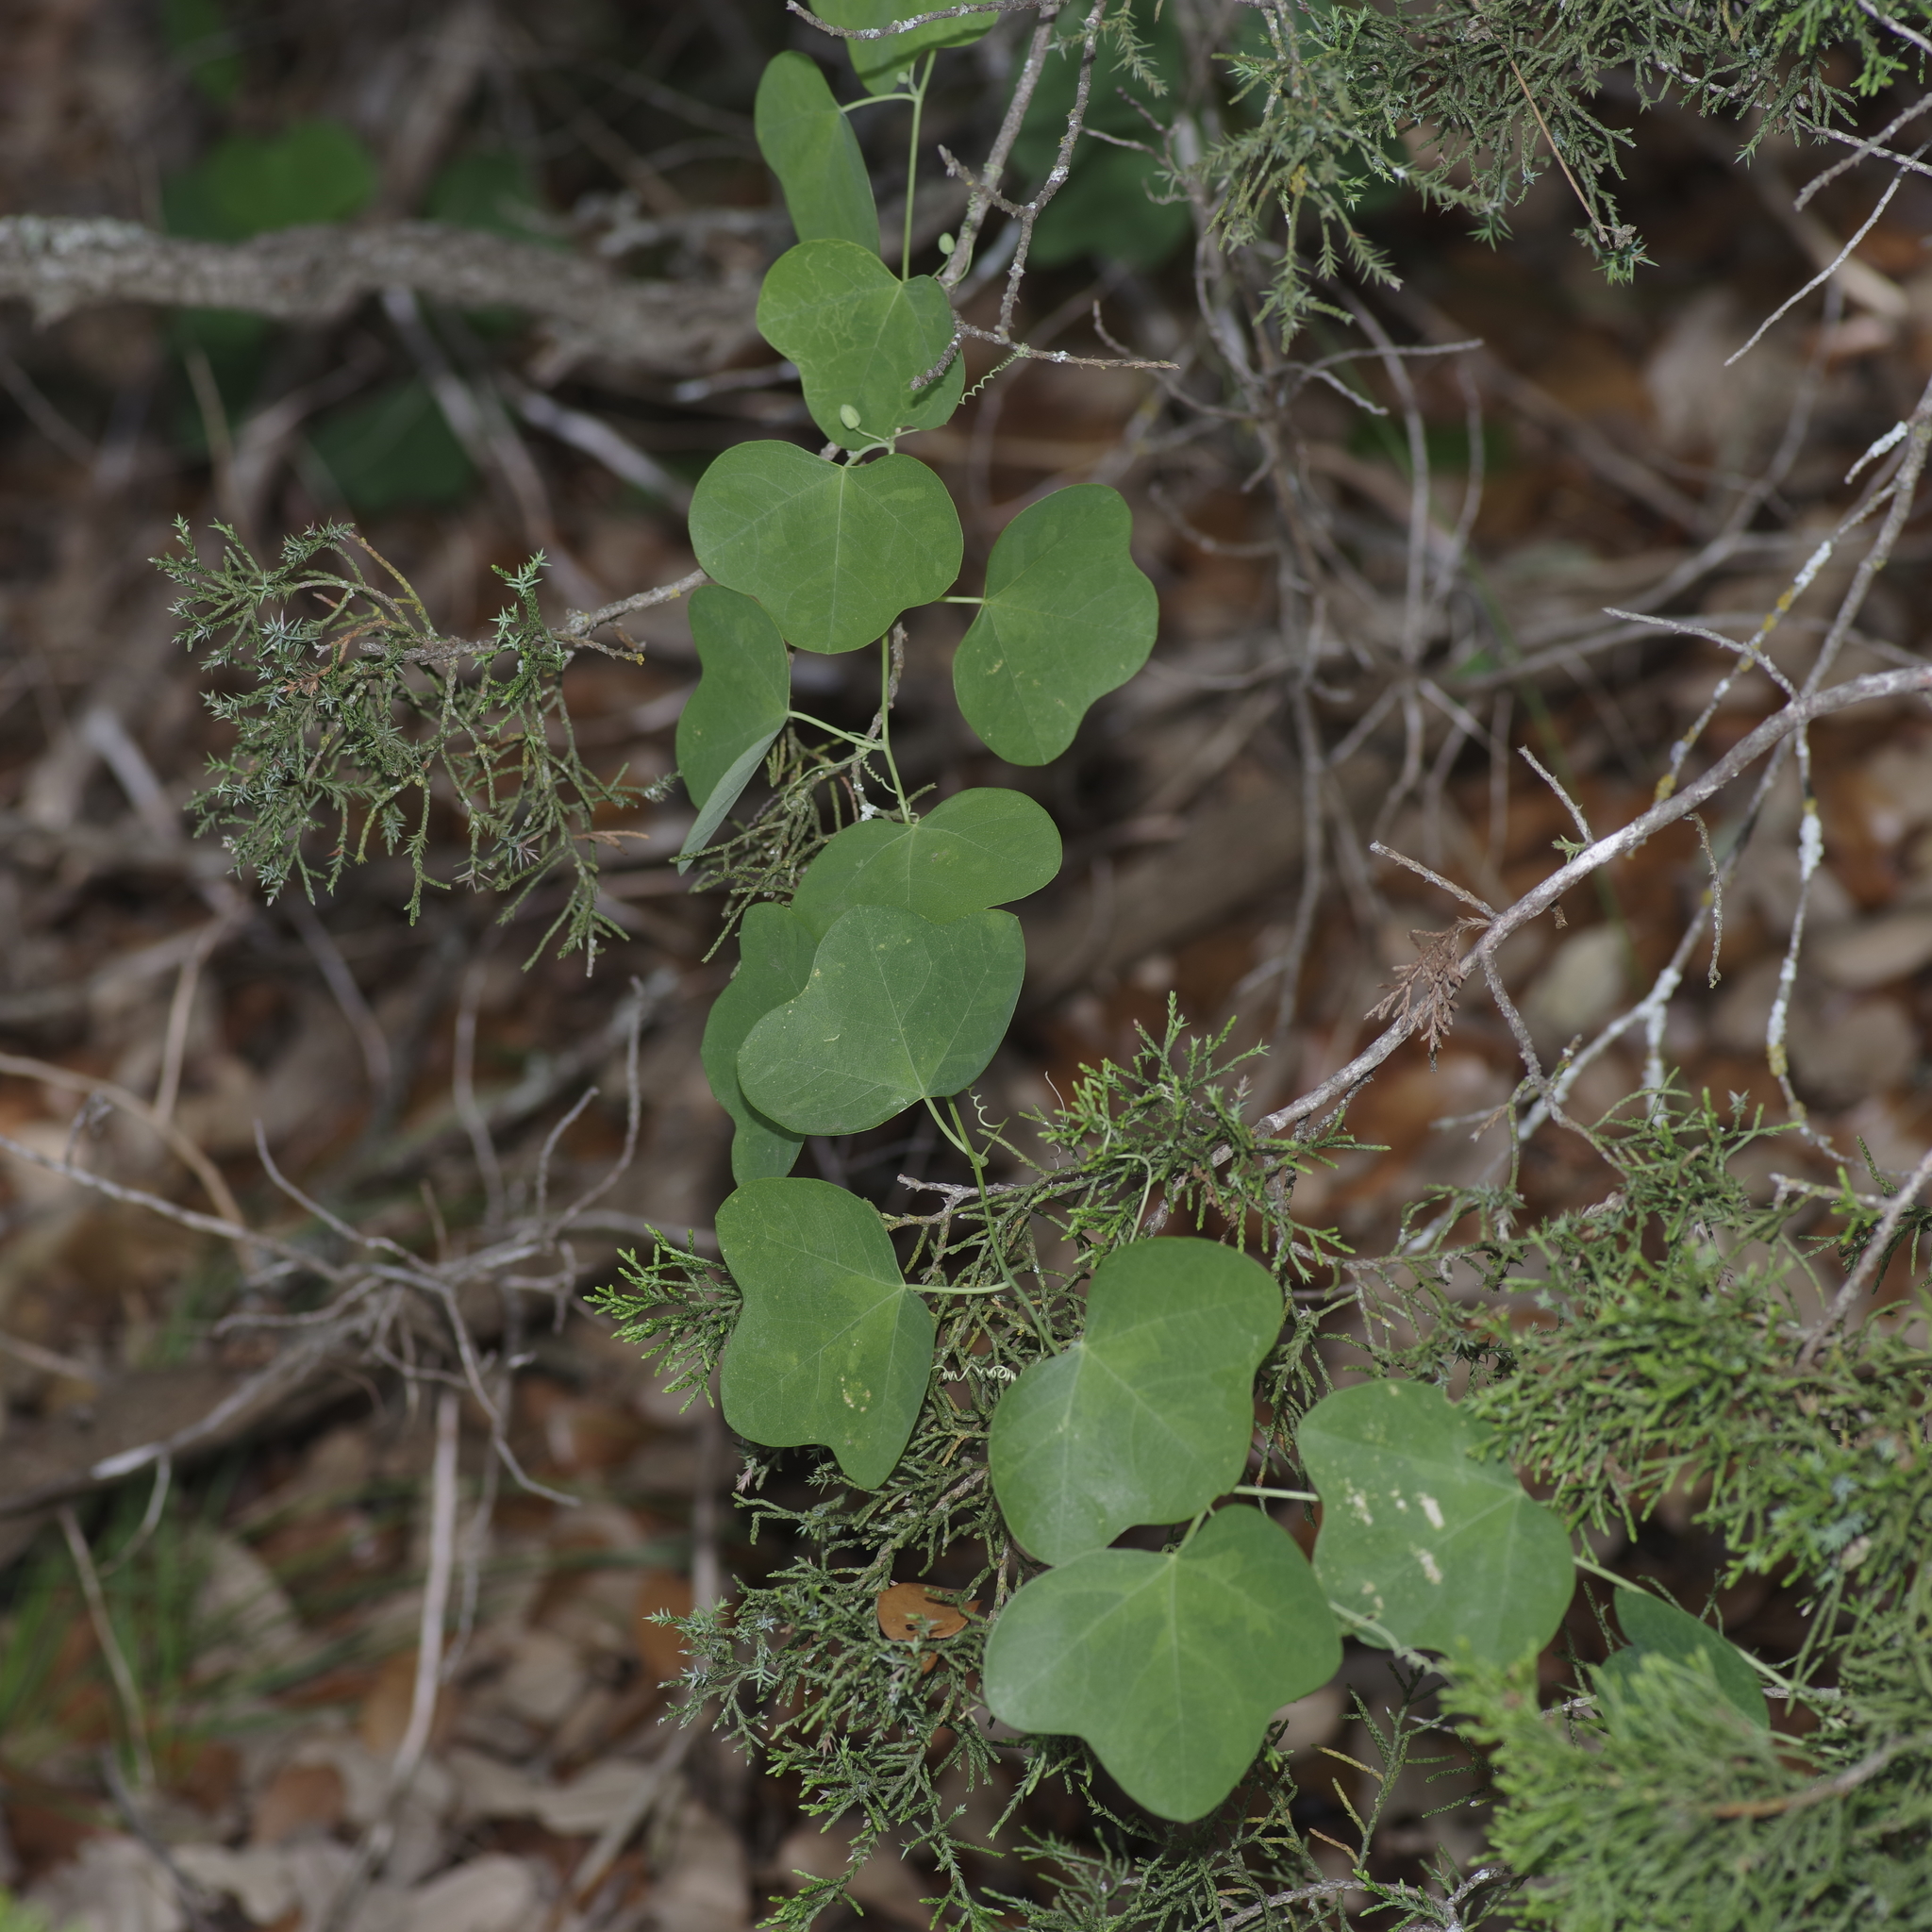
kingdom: Plantae
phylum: Tracheophyta
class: Magnoliopsida
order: Malpighiales
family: Passifloraceae
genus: Passiflora
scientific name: Passiflora lutea
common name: Yellow passionflower
